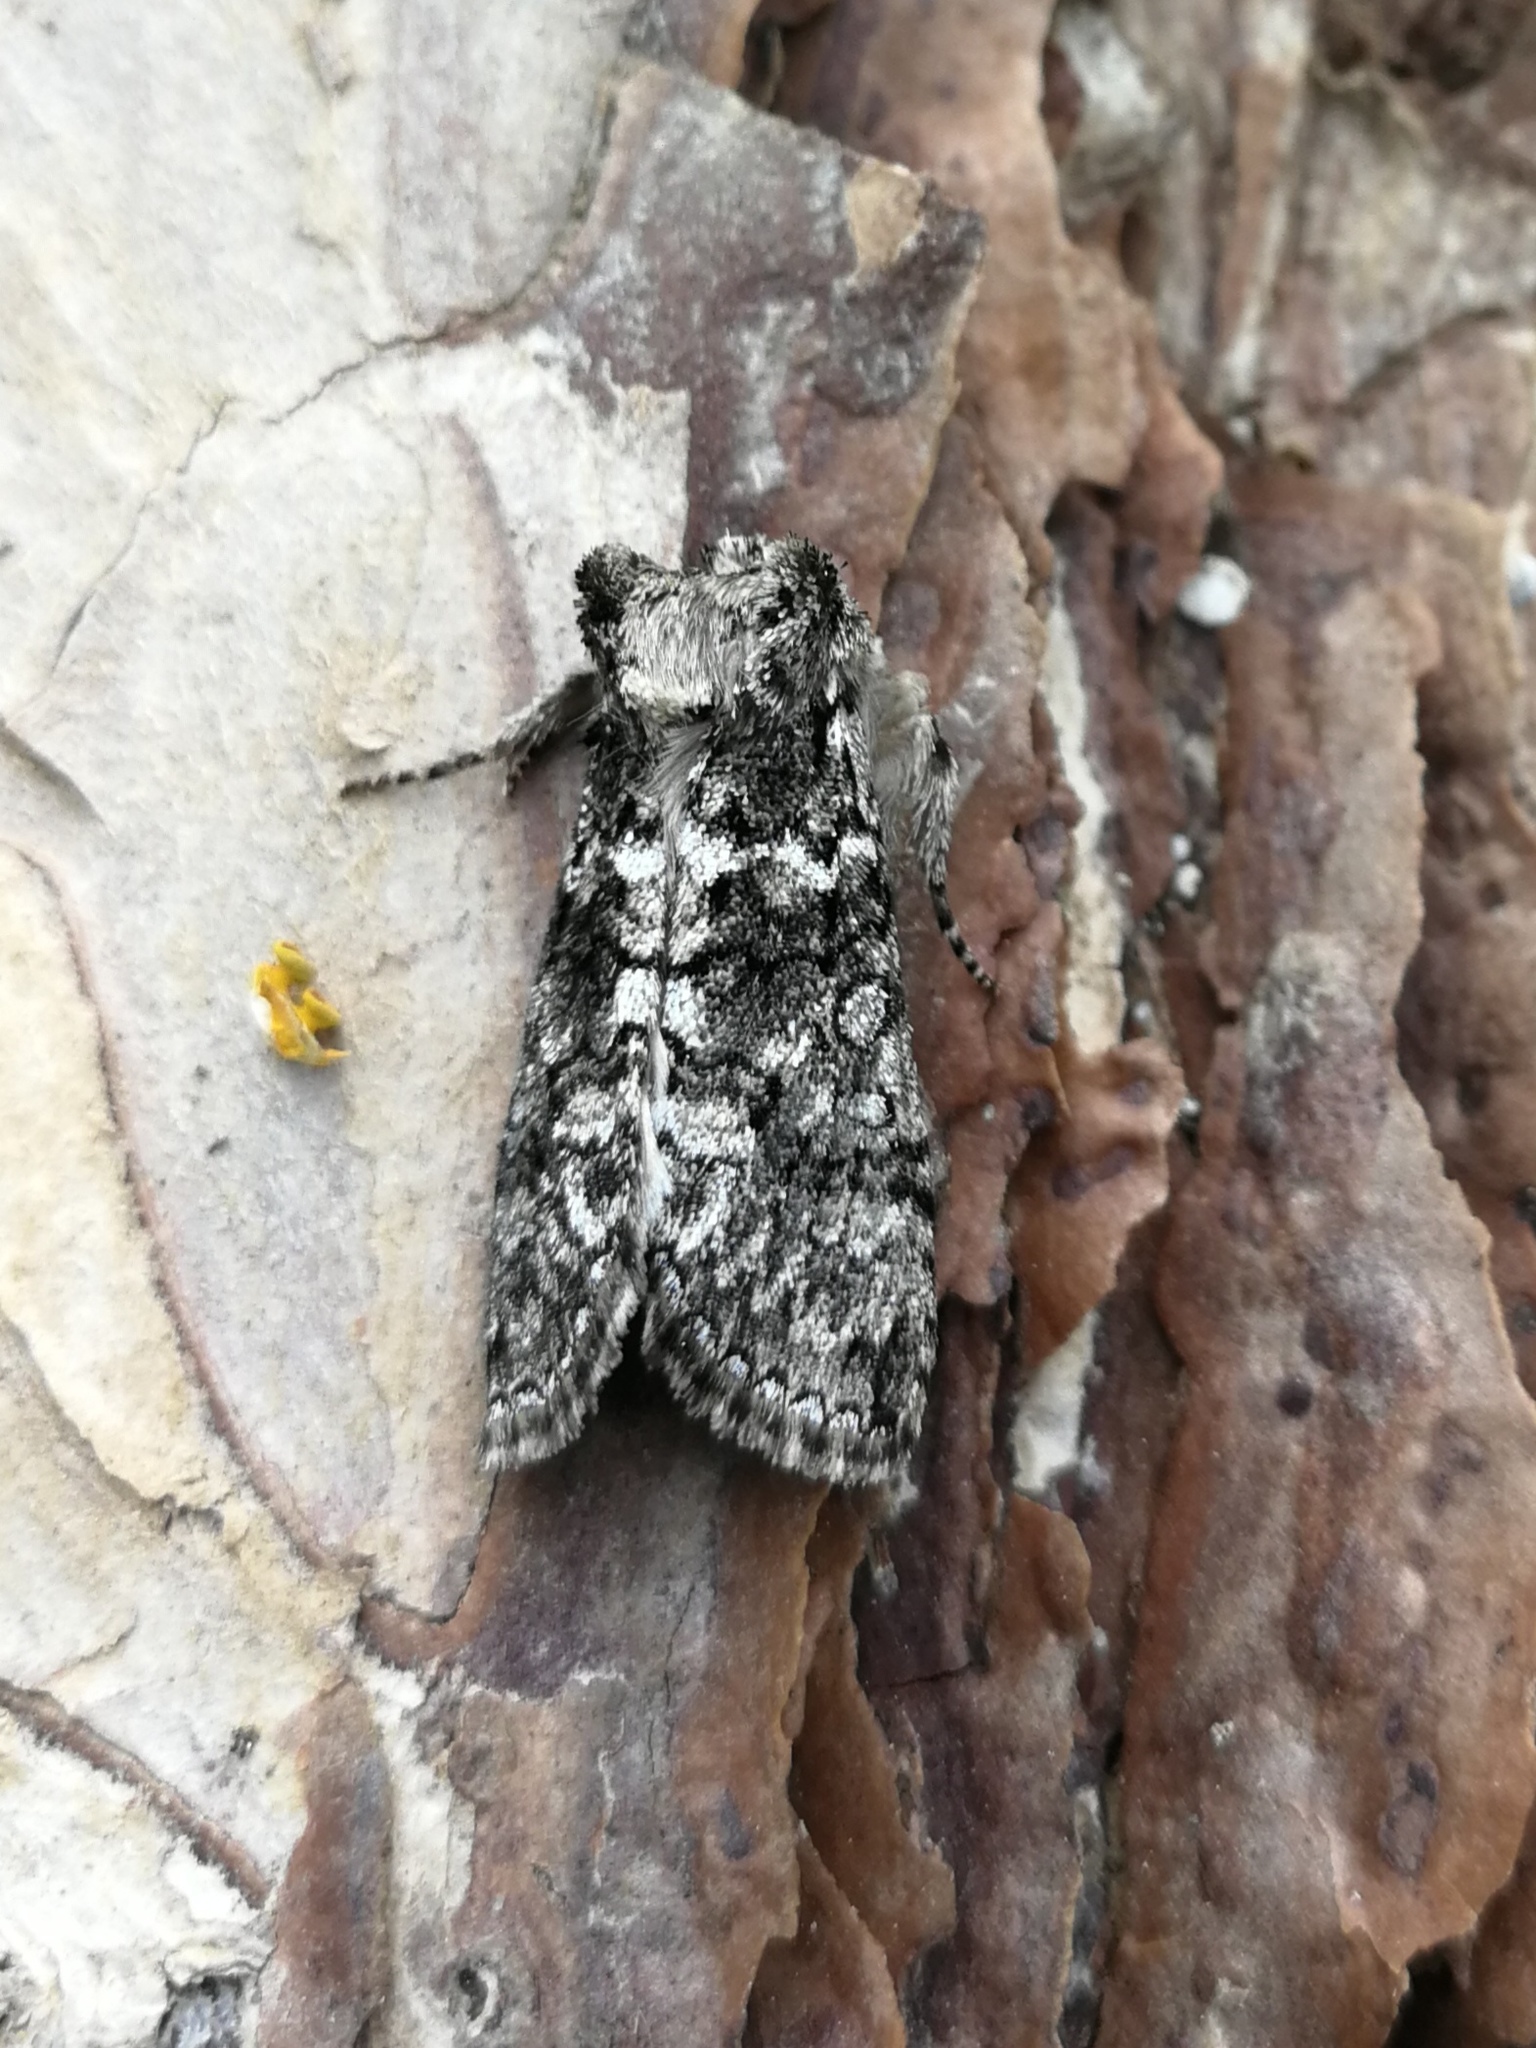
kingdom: Animalia
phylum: Arthropoda
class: Insecta
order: Lepidoptera
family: Drepanidae
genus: Polyploca
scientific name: Polyploca ridens
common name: Frosted green
